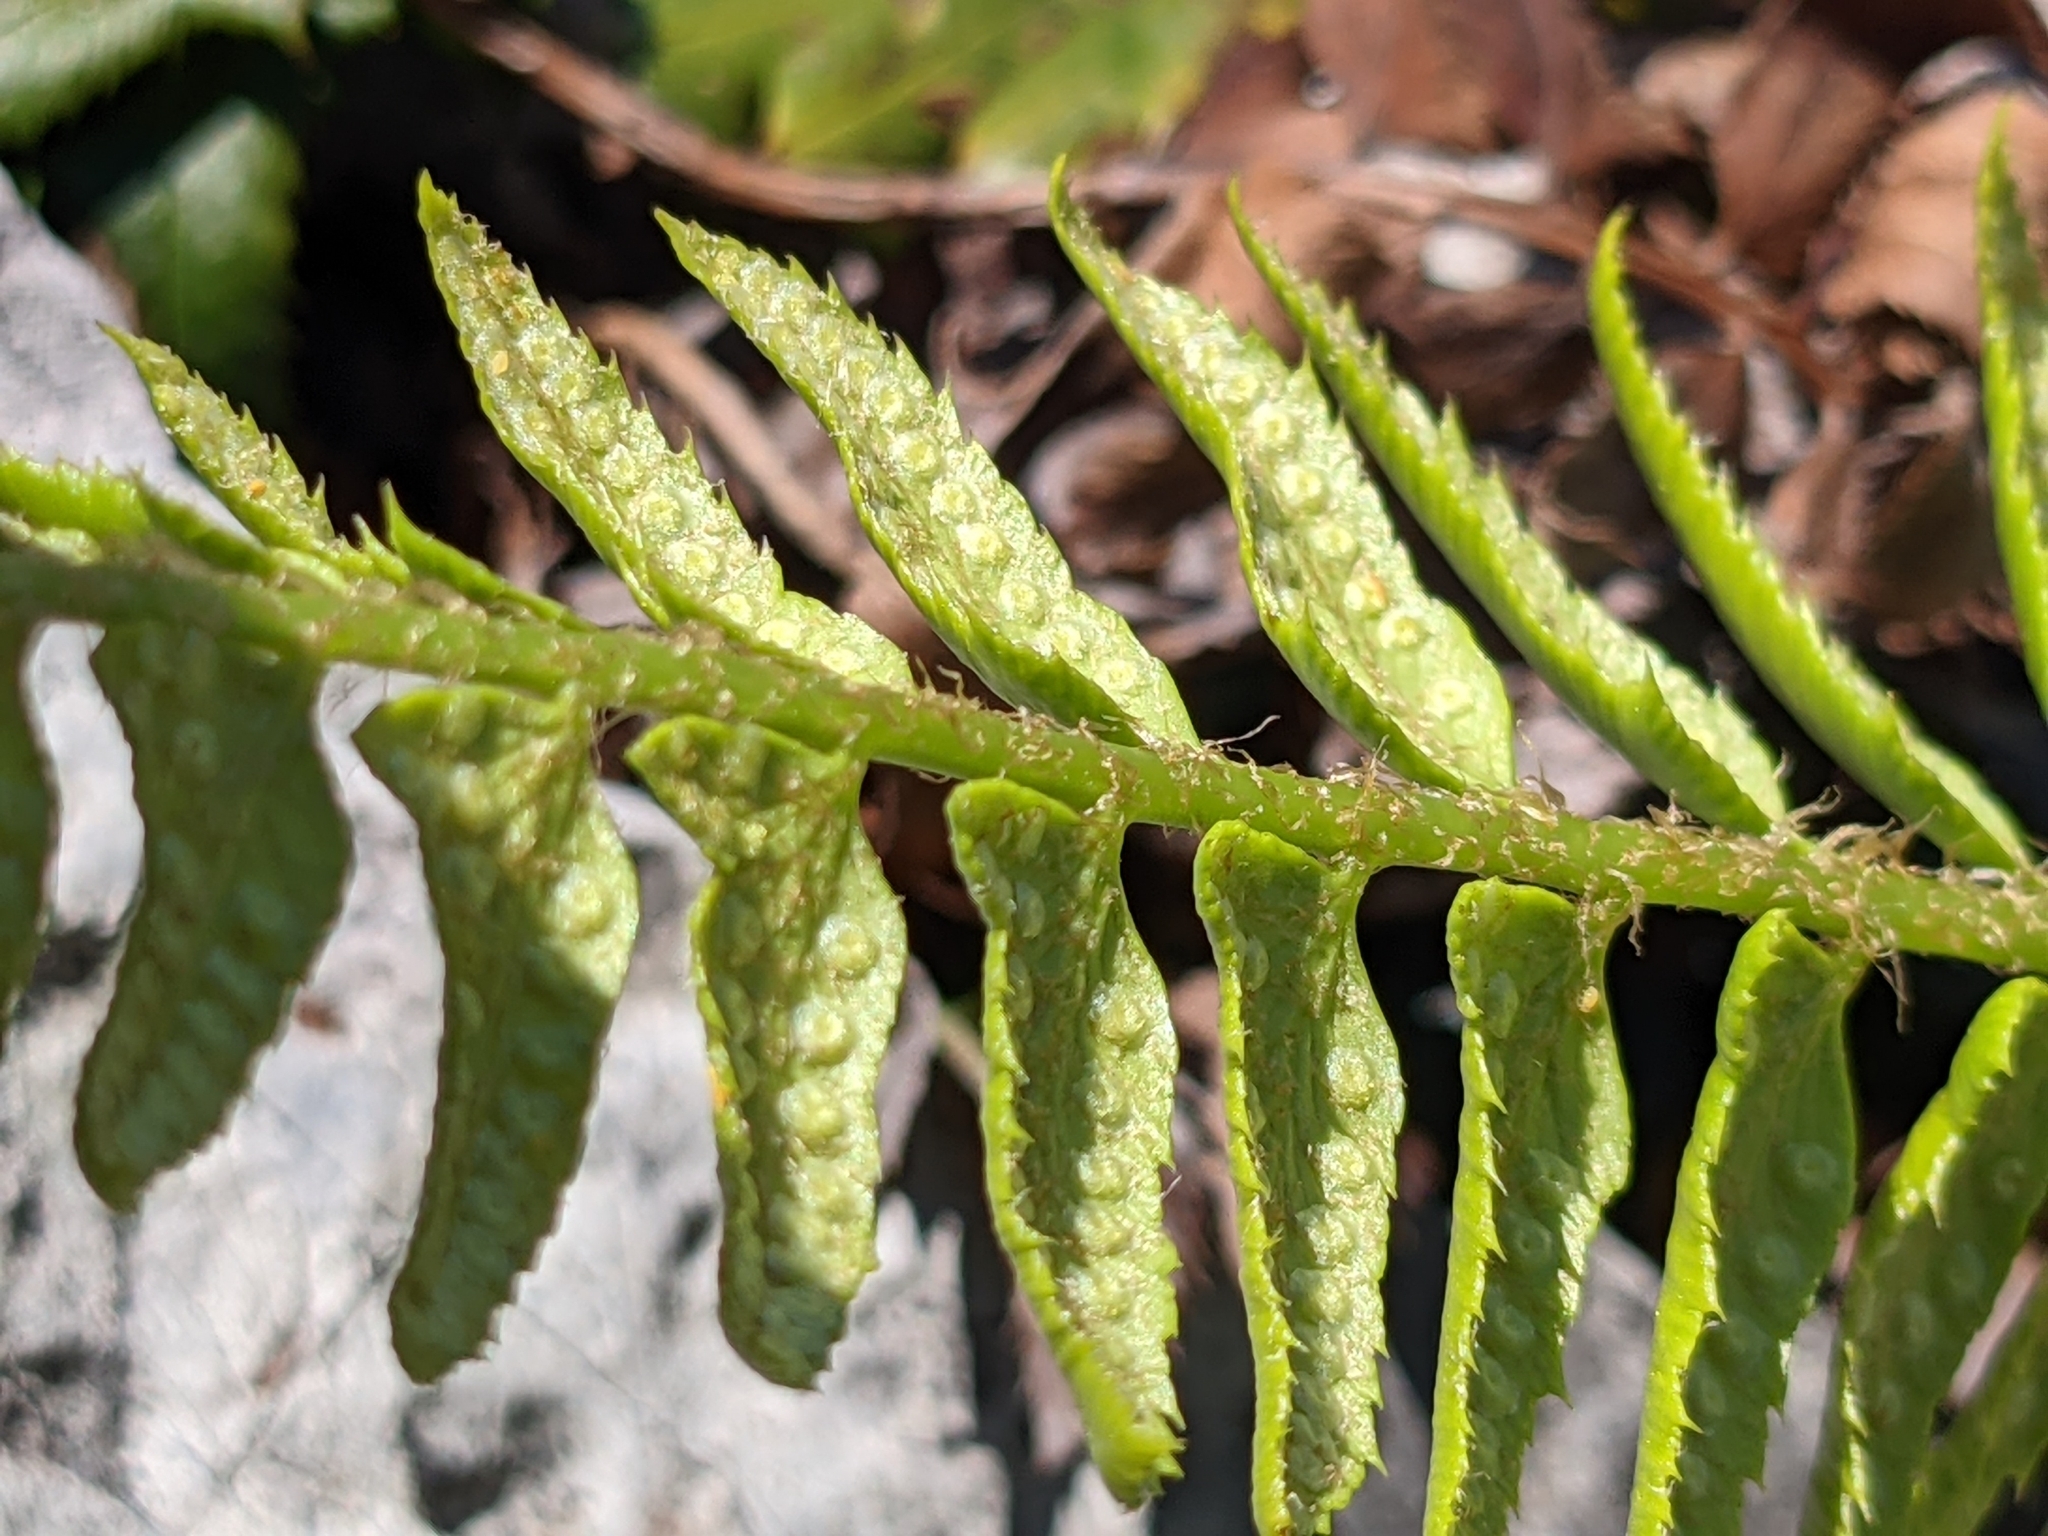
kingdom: Plantae
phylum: Tracheophyta
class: Polypodiopsida
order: Polypodiales
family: Dryopteridaceae
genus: Polystichum
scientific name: Polystichum lonchitis
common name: Holly fern
